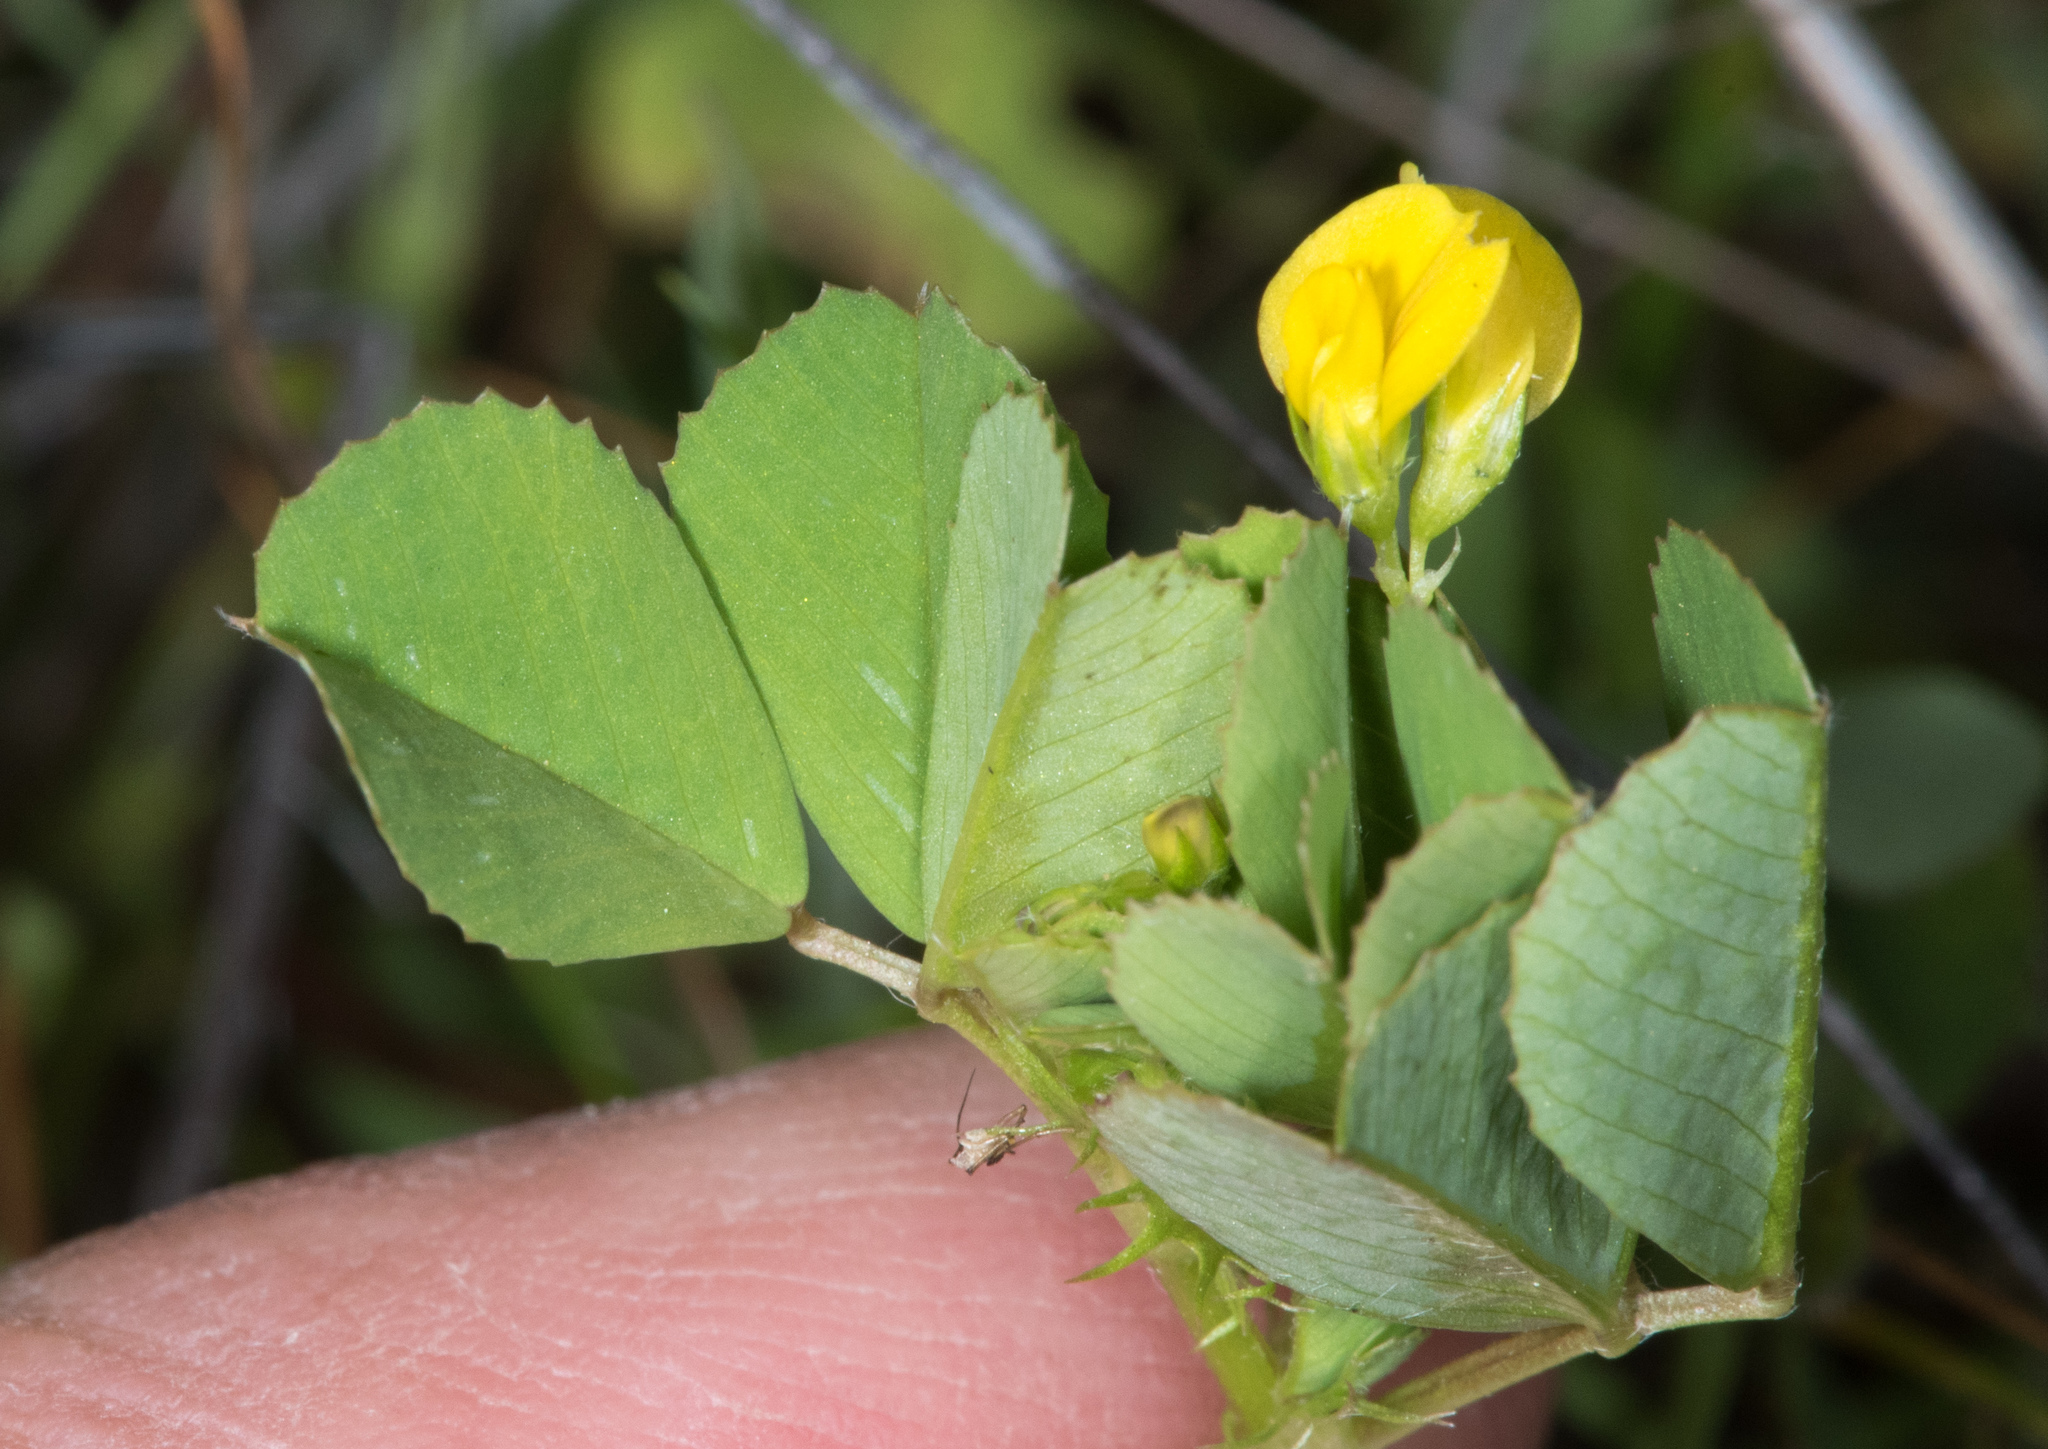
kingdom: Plantae
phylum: Tracheophyta
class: Magnoliopsida
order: Fabales
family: Fabaceae
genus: Medicago
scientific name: Medicago polymorpha
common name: Burclover
